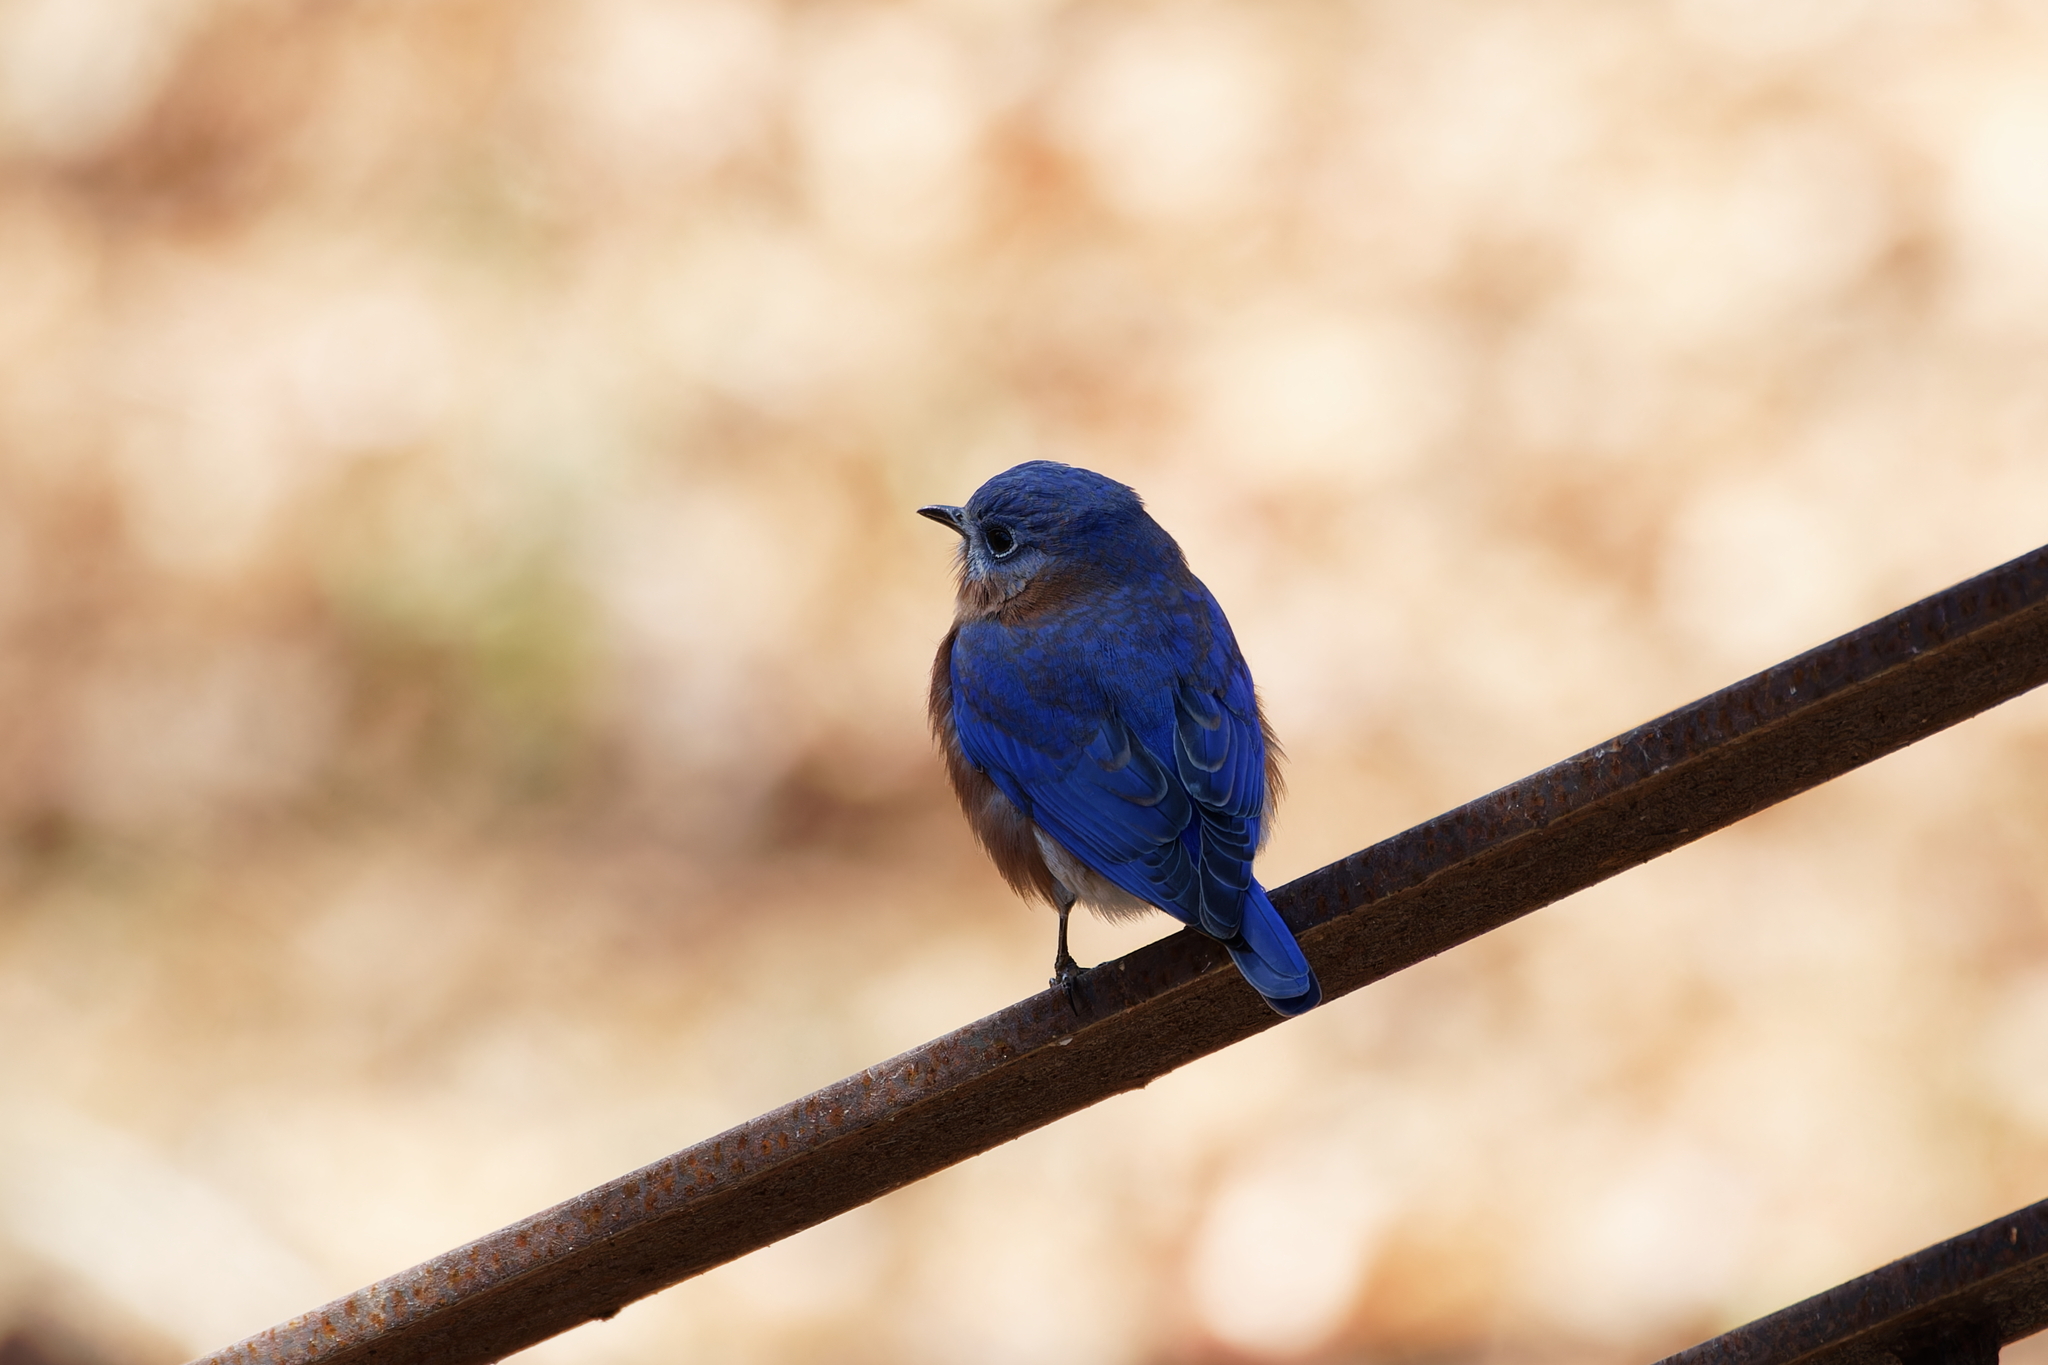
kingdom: Animalia
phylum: Chordata
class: Aves
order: Passeriformes
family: Turdidae
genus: Sialia
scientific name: Sialia sialis
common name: Eastern bluebird
